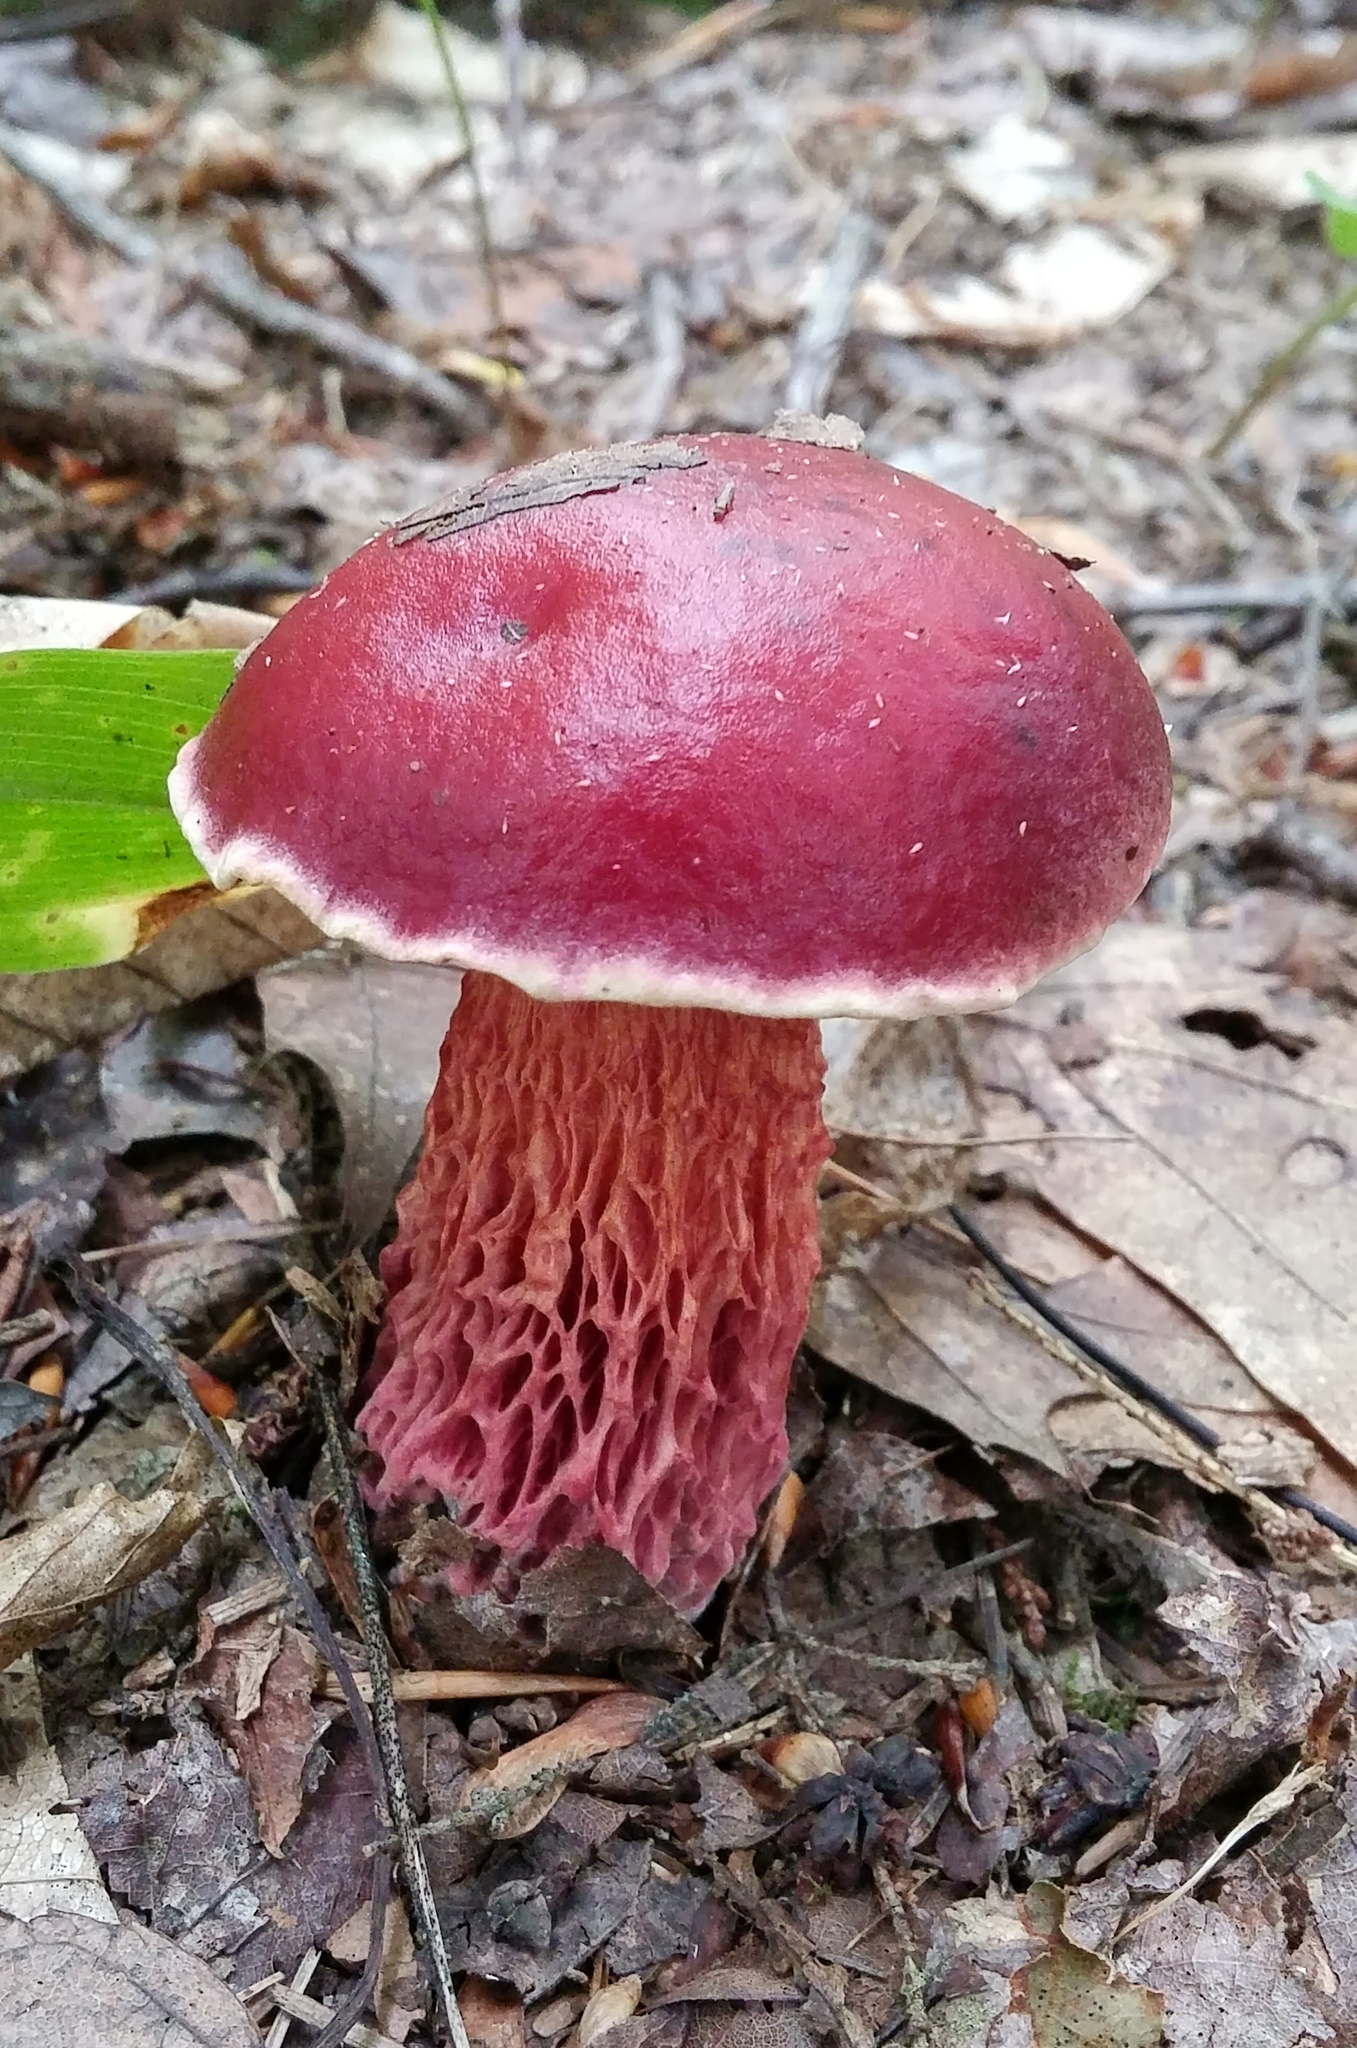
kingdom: Fungi
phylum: Basidiomycota
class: Agaricomycetes
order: Boletales
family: Boletaceae
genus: Butyriboletus
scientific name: Butyriboletus frostii
